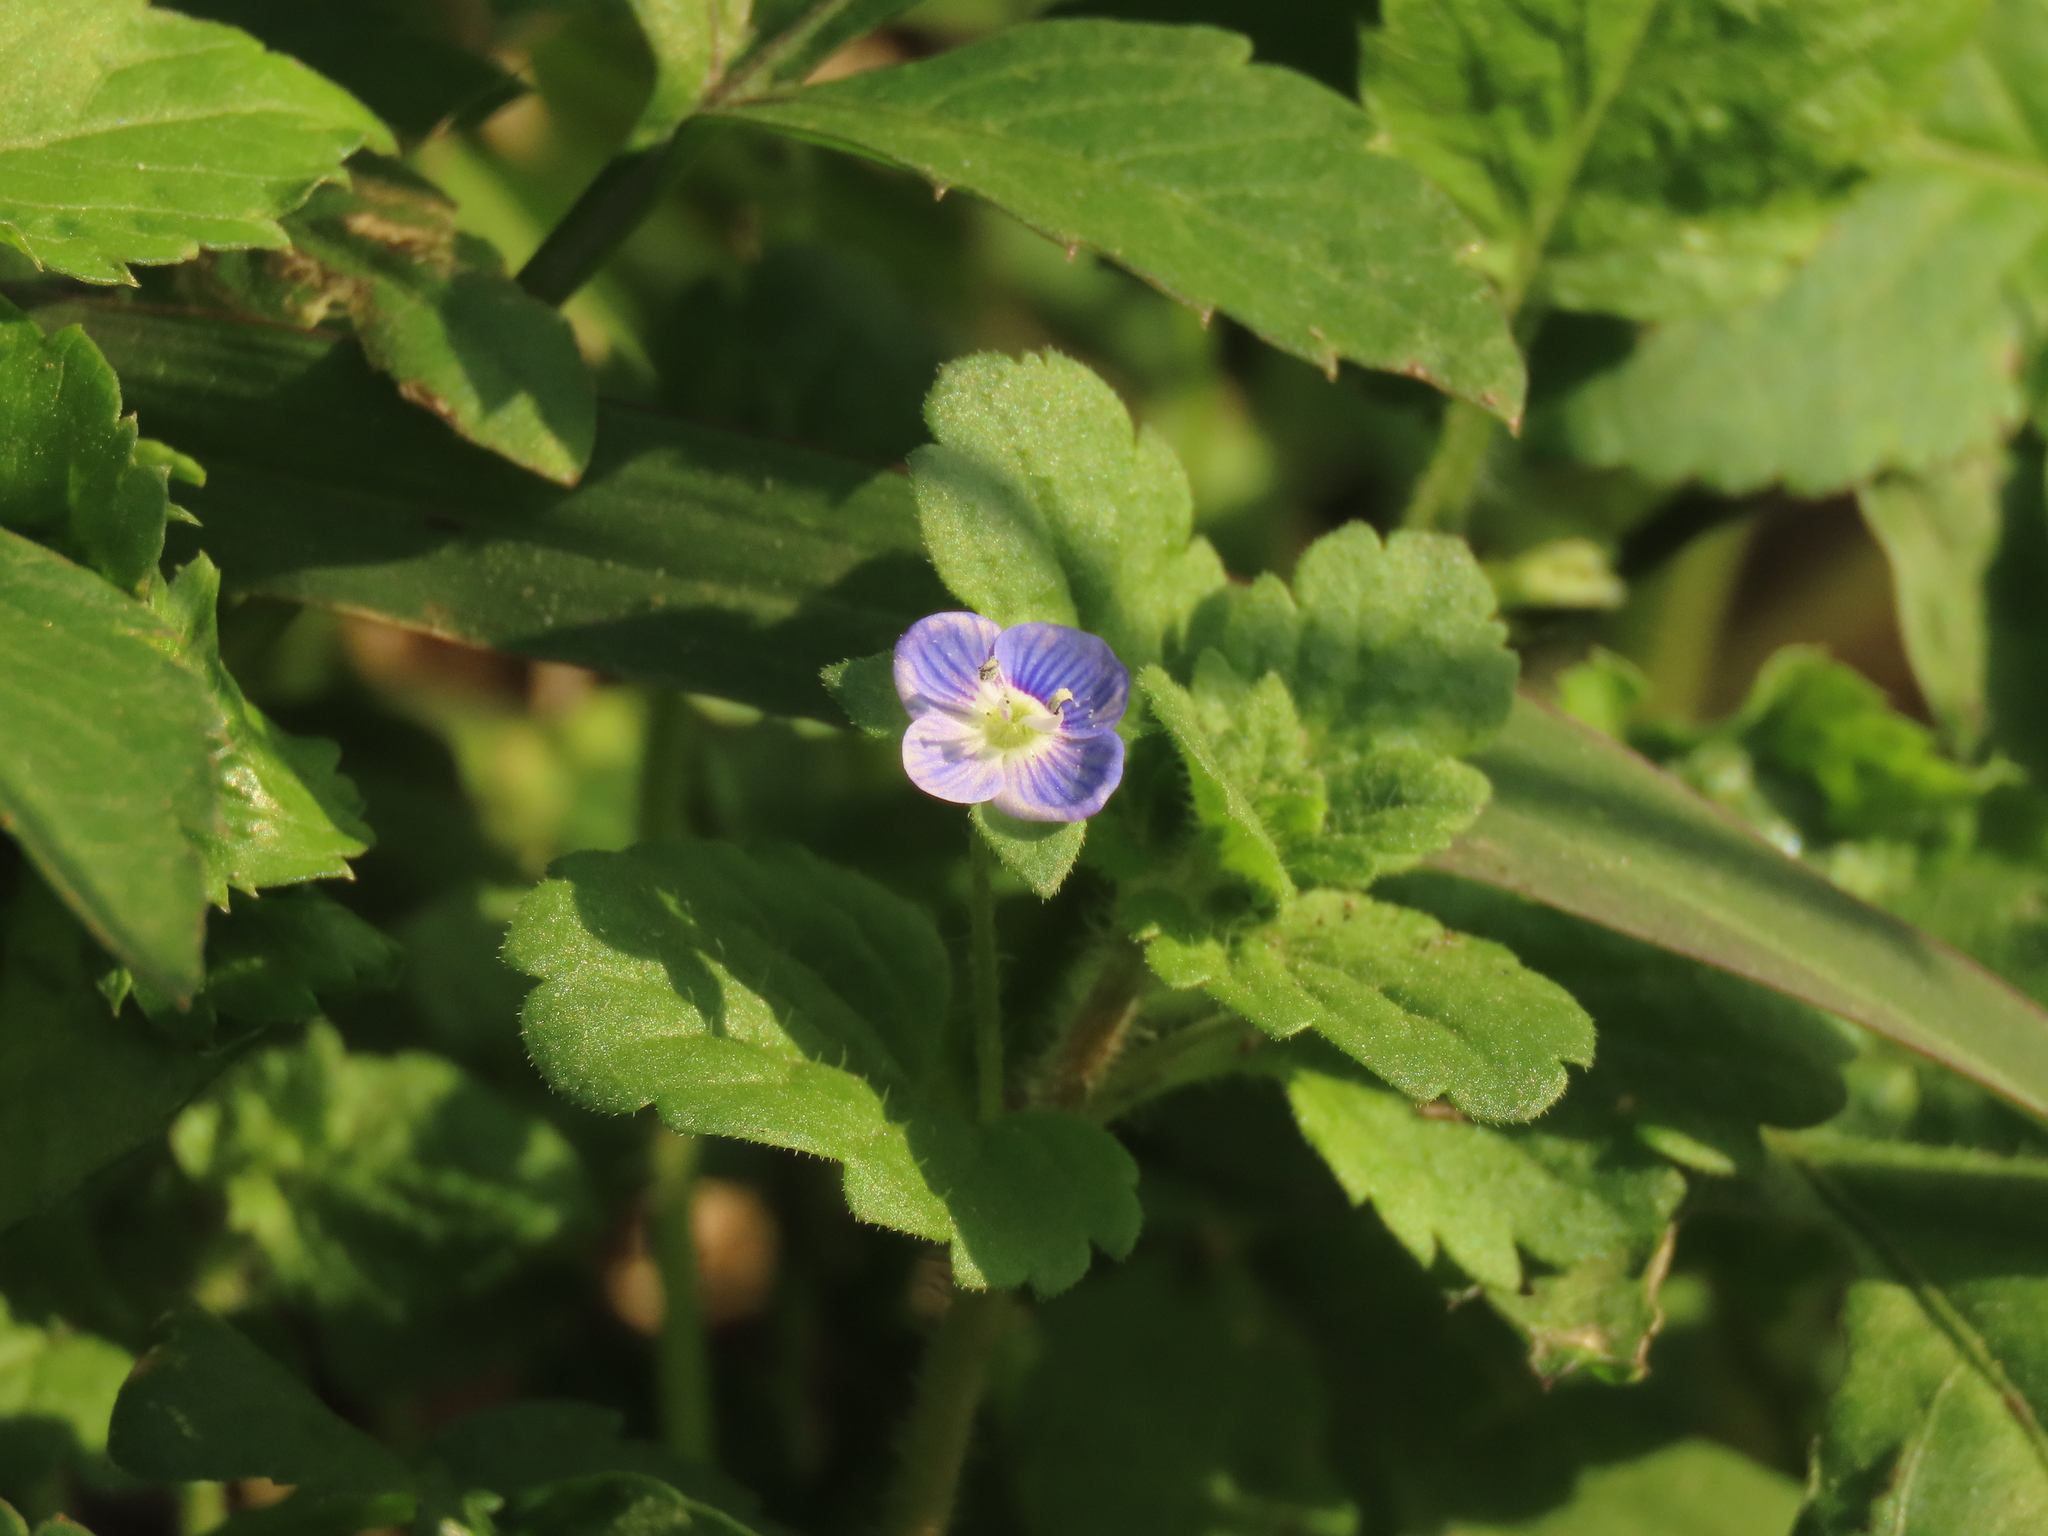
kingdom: Plantae
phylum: Tracheophyta
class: Magnoliopsida
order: Lamiales
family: Plantaginaceae
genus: Veronica
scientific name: Veronica persica
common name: Common field-speedwell
